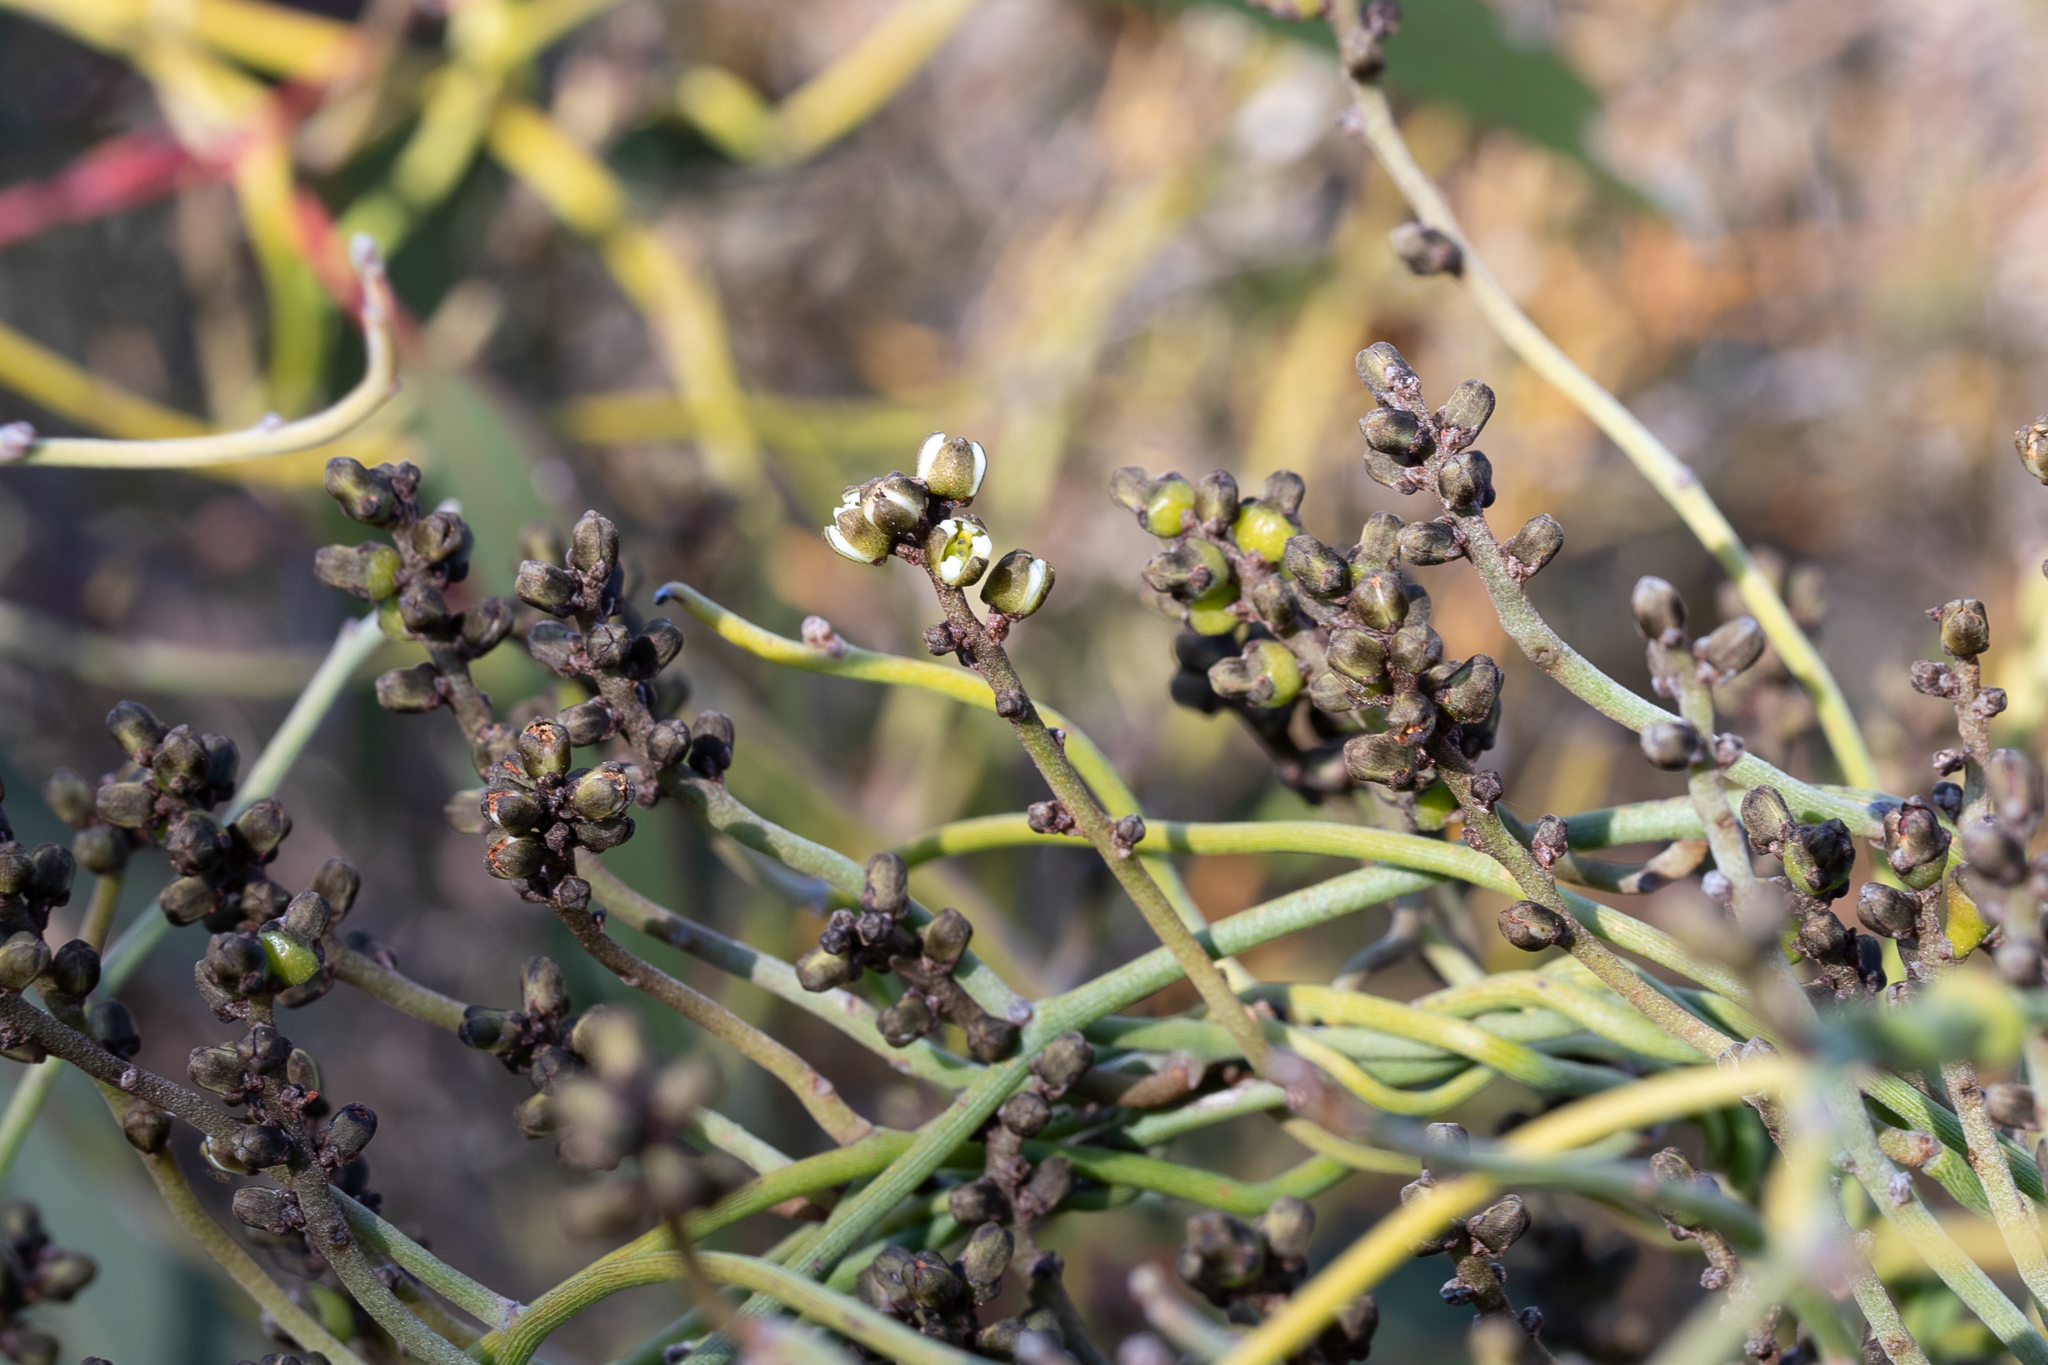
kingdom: Plantae
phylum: Tracheophyta
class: Magnoliopsida
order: Laurales
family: Lauraceae
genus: Cassytha
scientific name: Cassytha melantha
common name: Mallee stranglevine
